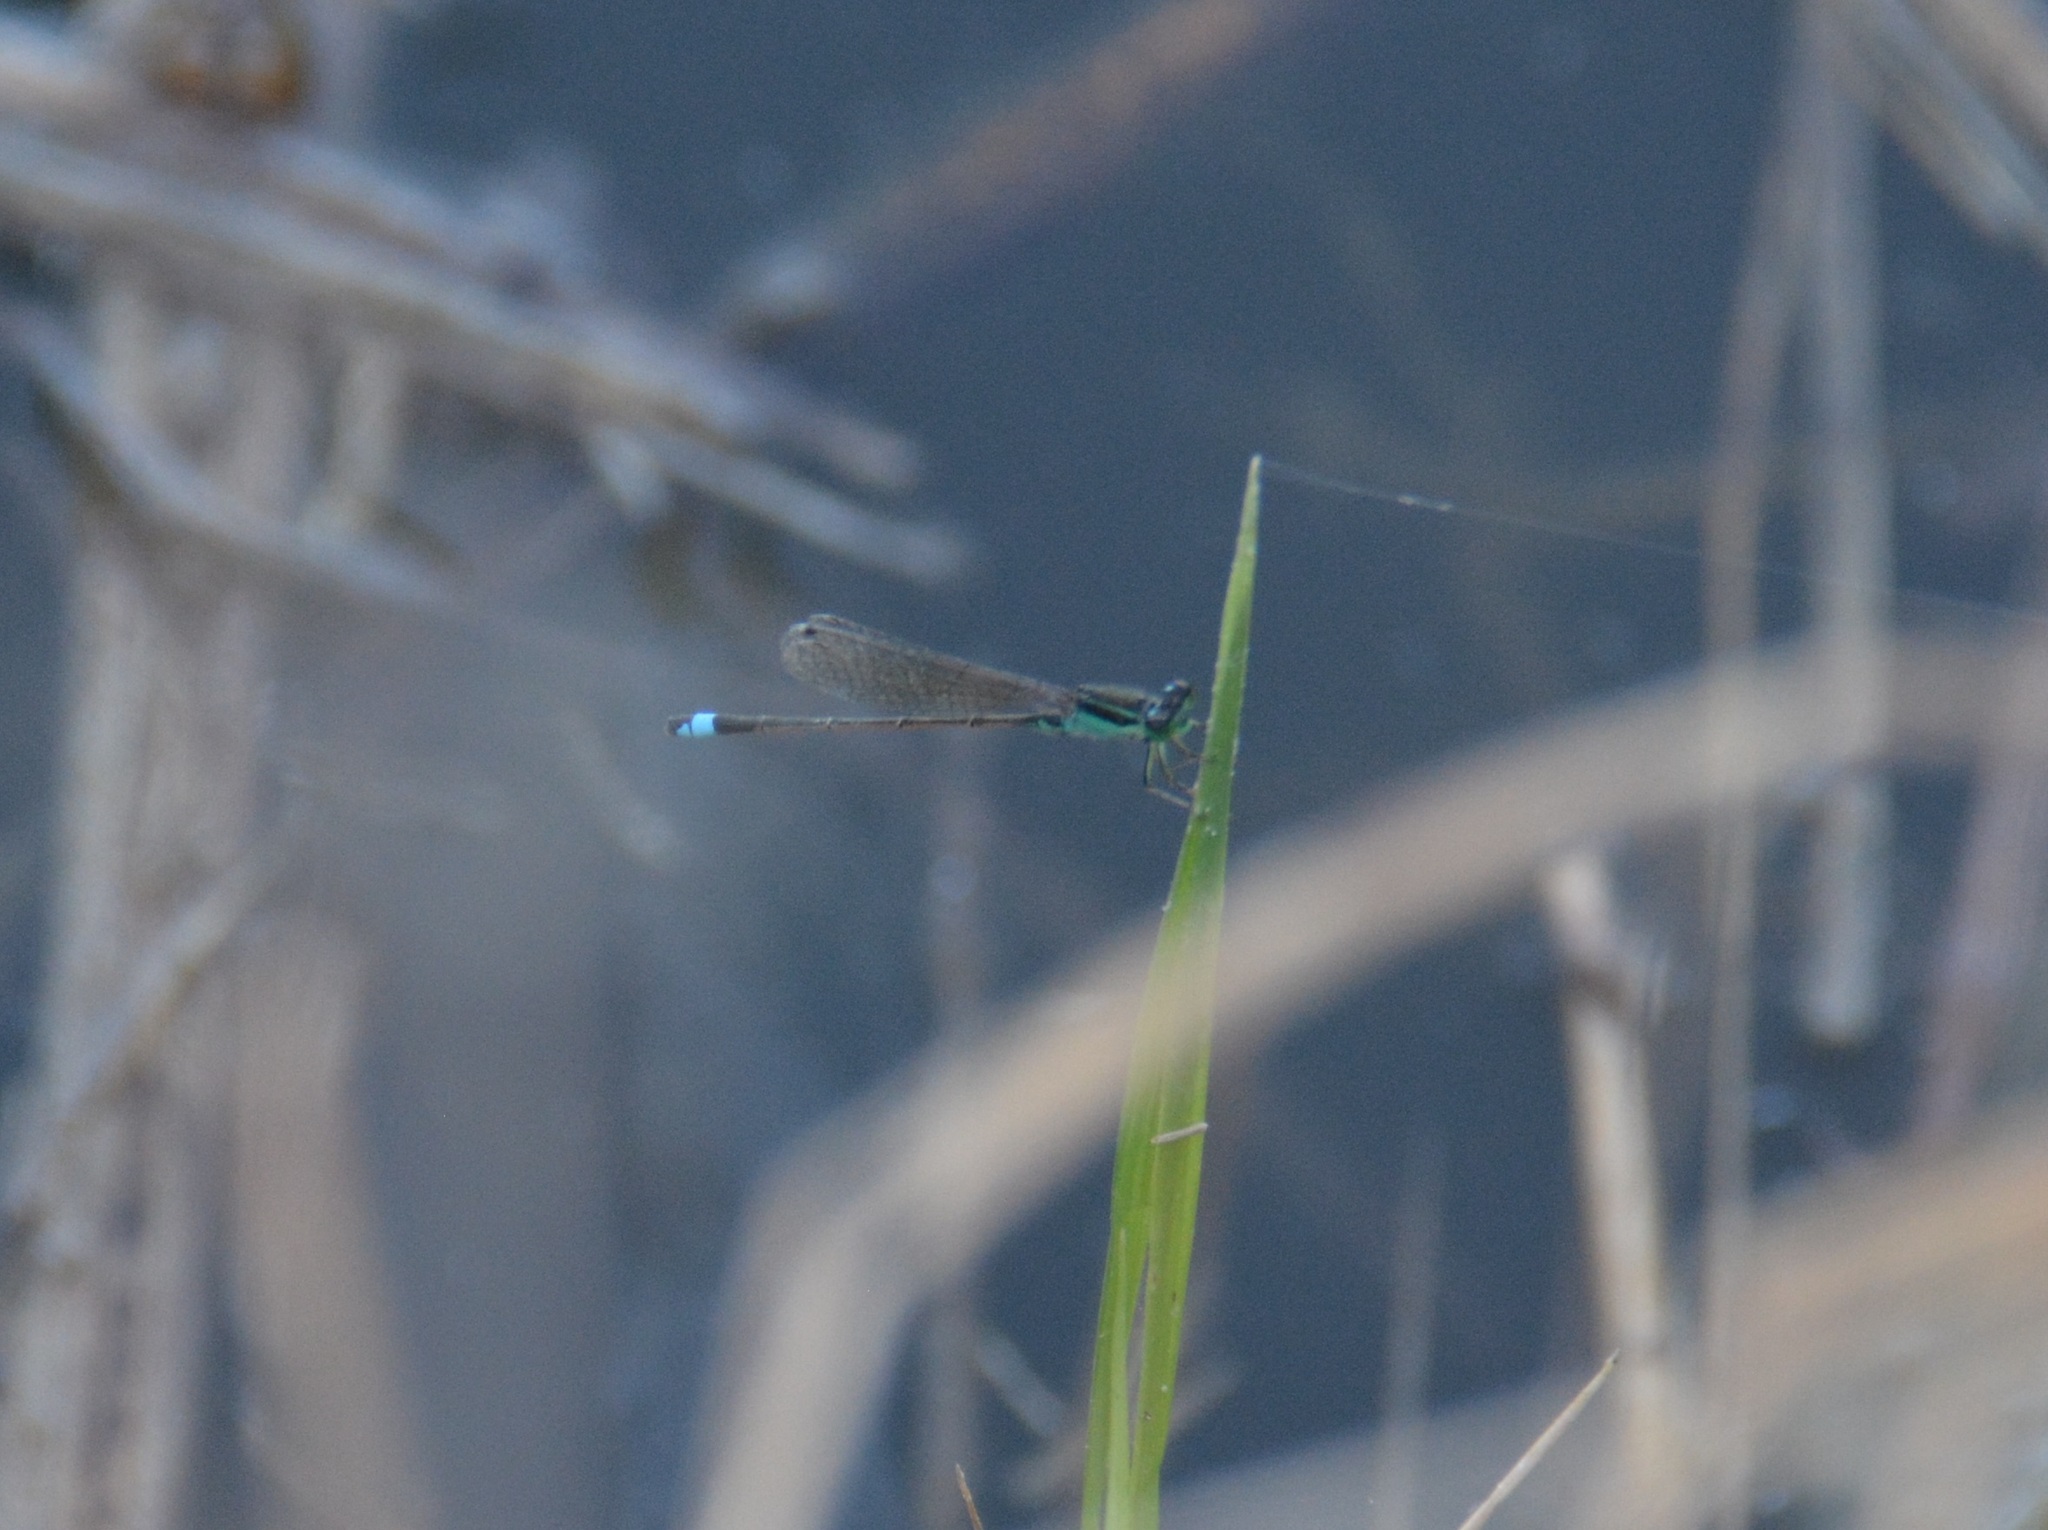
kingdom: Animalia
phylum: Arthropoda
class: Insecta
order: Odonata
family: Coenagrionidae
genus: Ischnura
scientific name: Ischnura senegalensis
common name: Tropical bluetail
